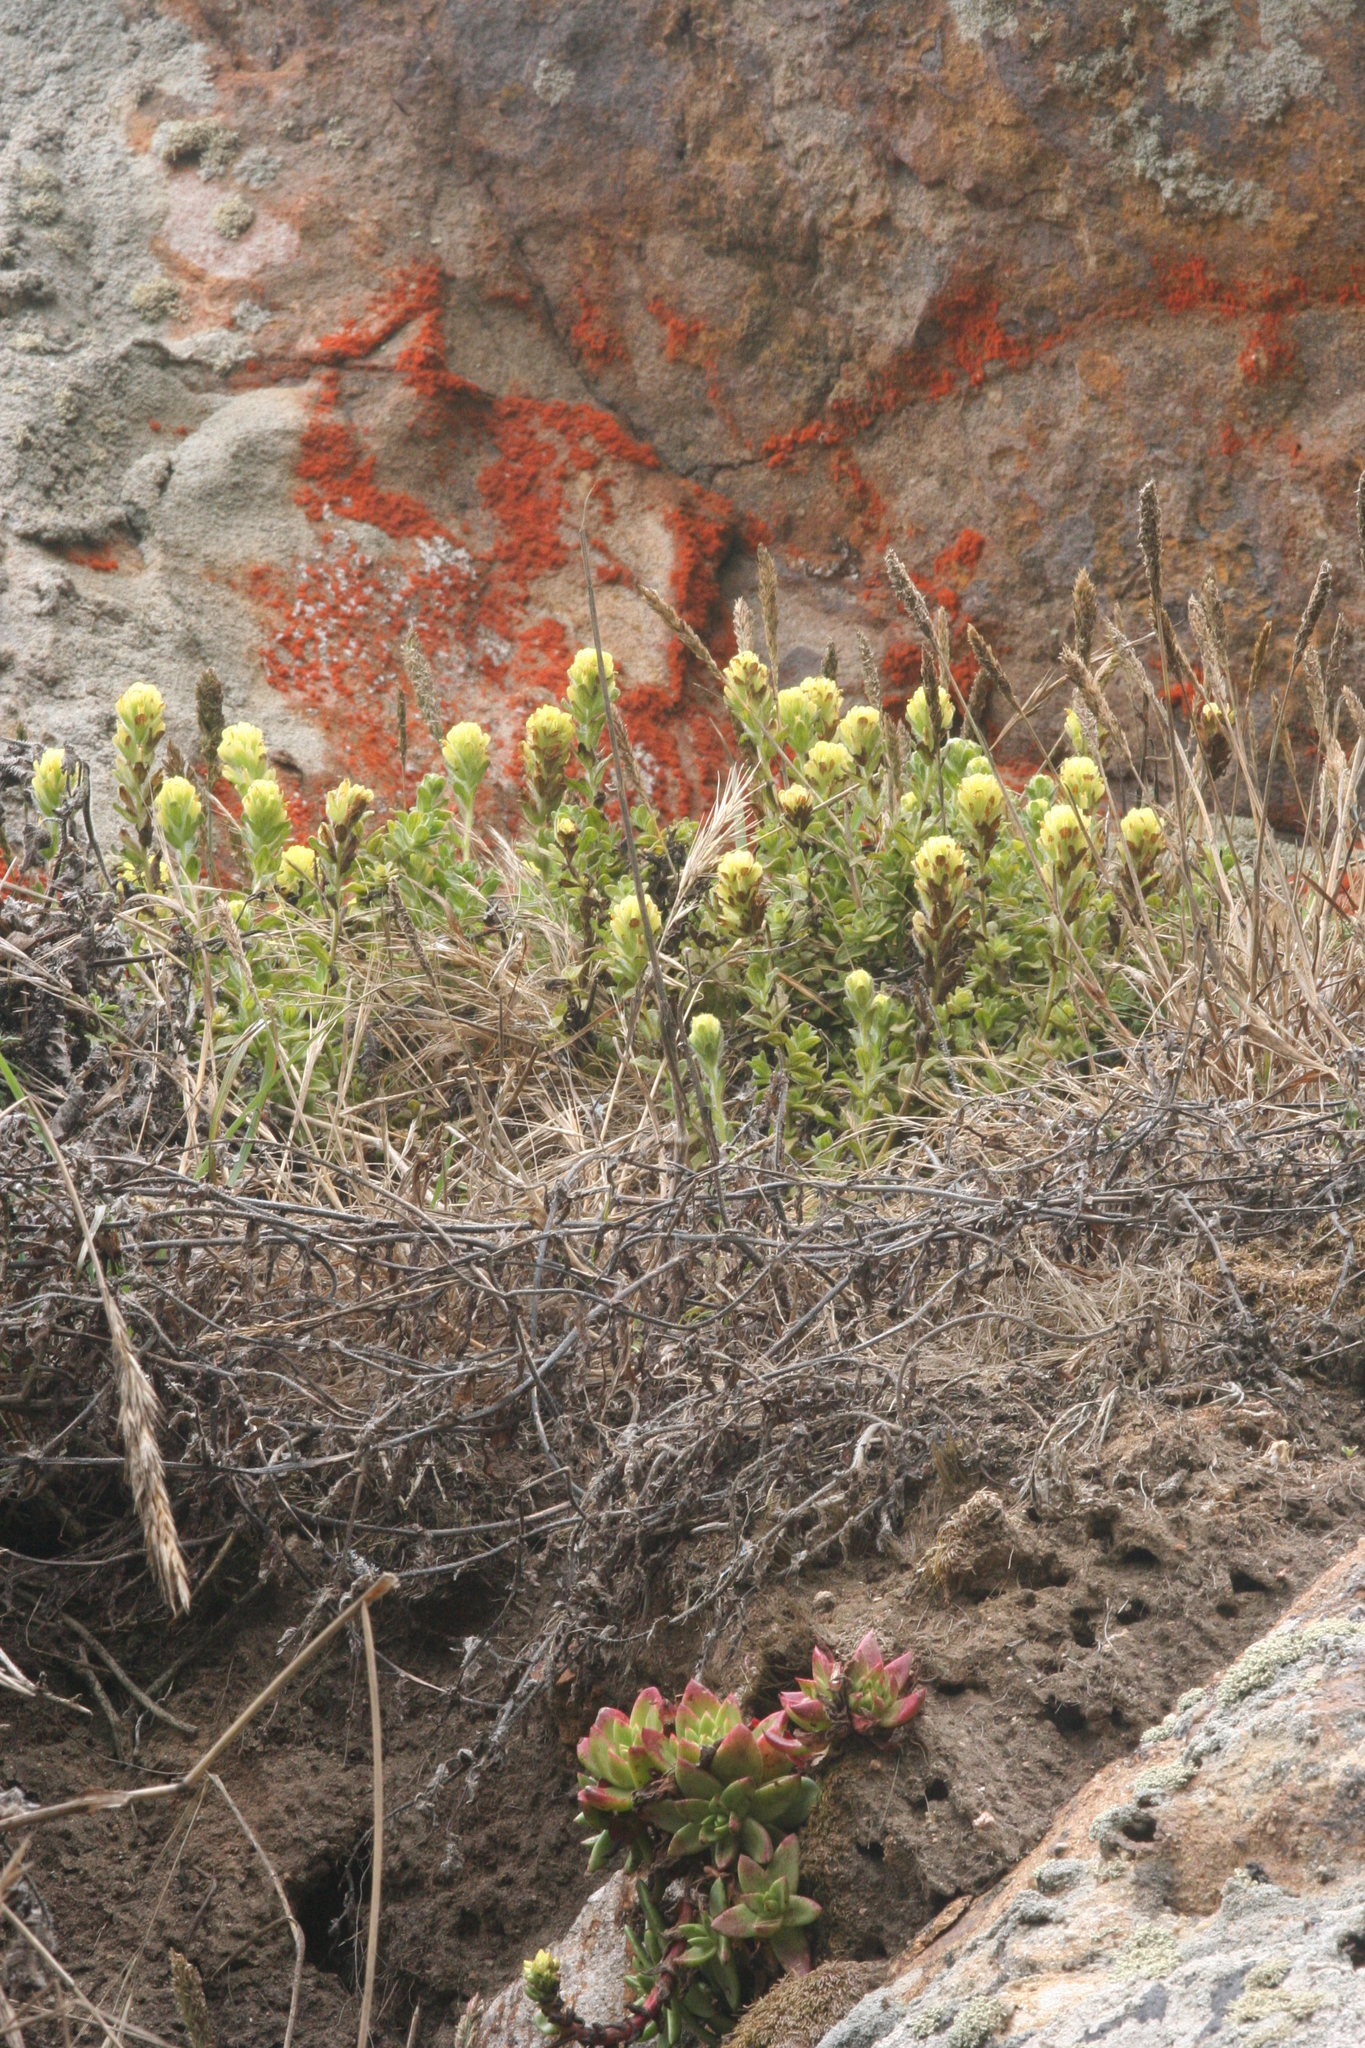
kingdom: Plantae
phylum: Tracheophyta
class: Magnoliopsida
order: Lamiales
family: Orobanchaceae
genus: Castilleja
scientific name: Castilleja wightii
